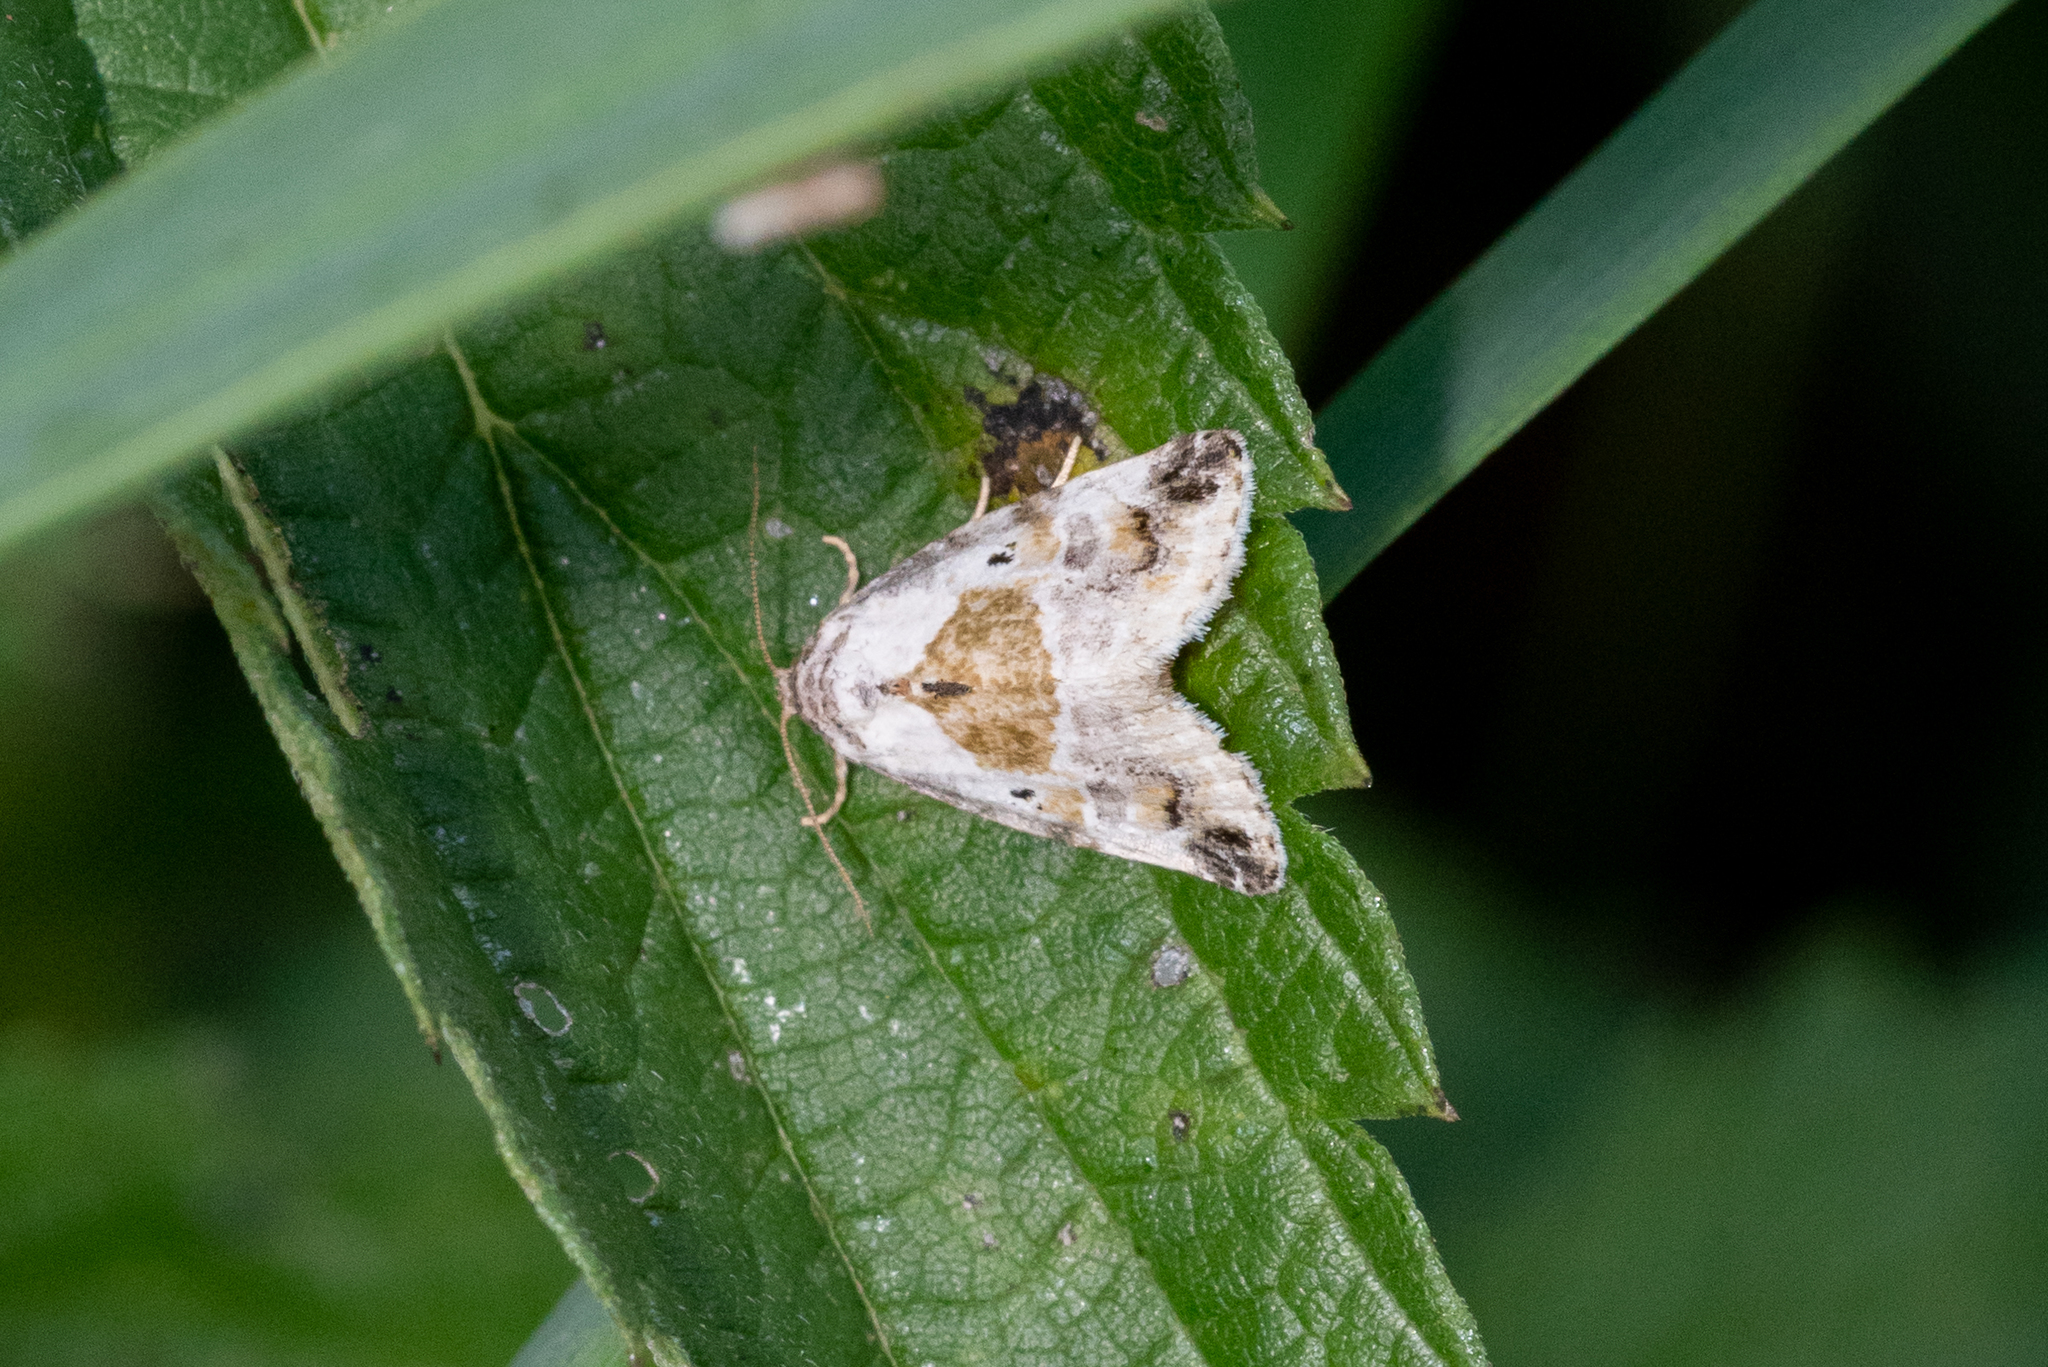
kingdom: Animalia
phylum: Arthropoda
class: Insecta
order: Lepidoptera
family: Noctuidae
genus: Maliattha
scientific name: Maliattha synochitis
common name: Black-dotted glyph
